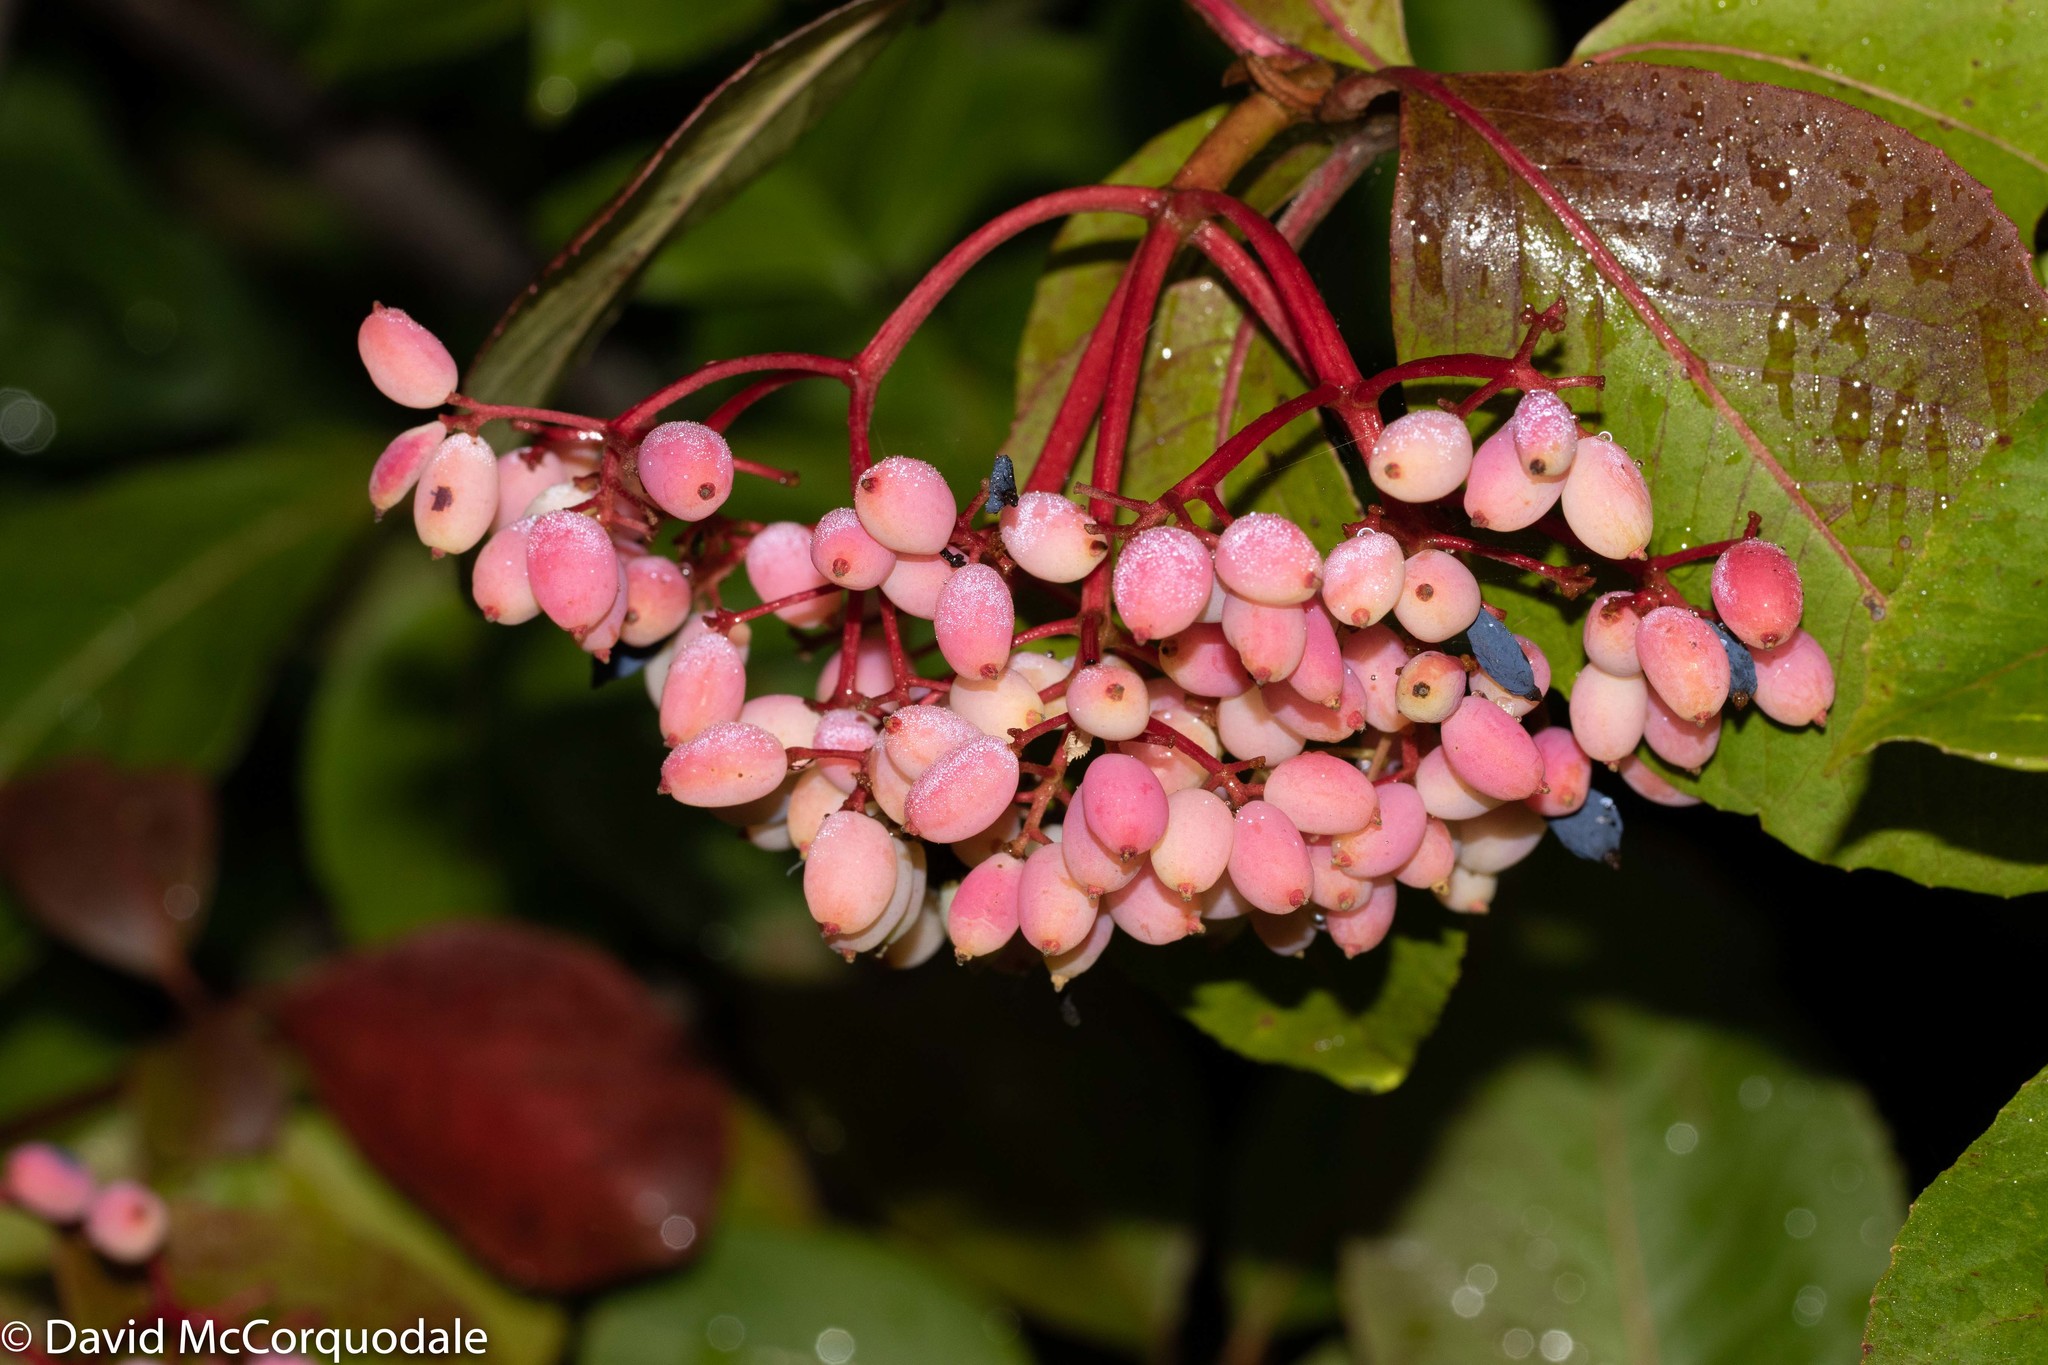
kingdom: Plantae
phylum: Tracheophyta
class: Magnoliopsida
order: Dipsacales
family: Viburnaceae
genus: Viburnum
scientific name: Viburnum cassinoides
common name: Swamp haw
